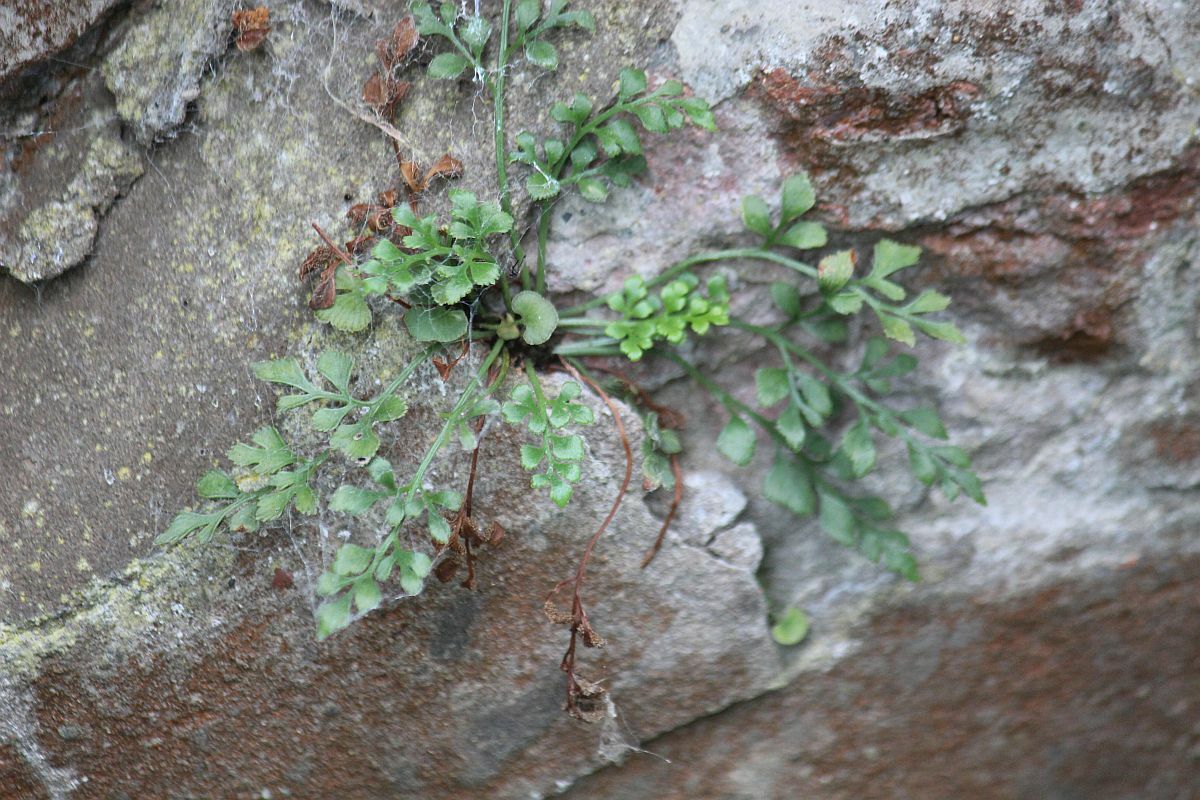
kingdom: Plantae
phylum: Tracheophyta
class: Polypodiopsida
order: Polypodiales
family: Aspleniaceae
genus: Asplenium
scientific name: Asplenium ruta-muraria
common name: Wall-rue
